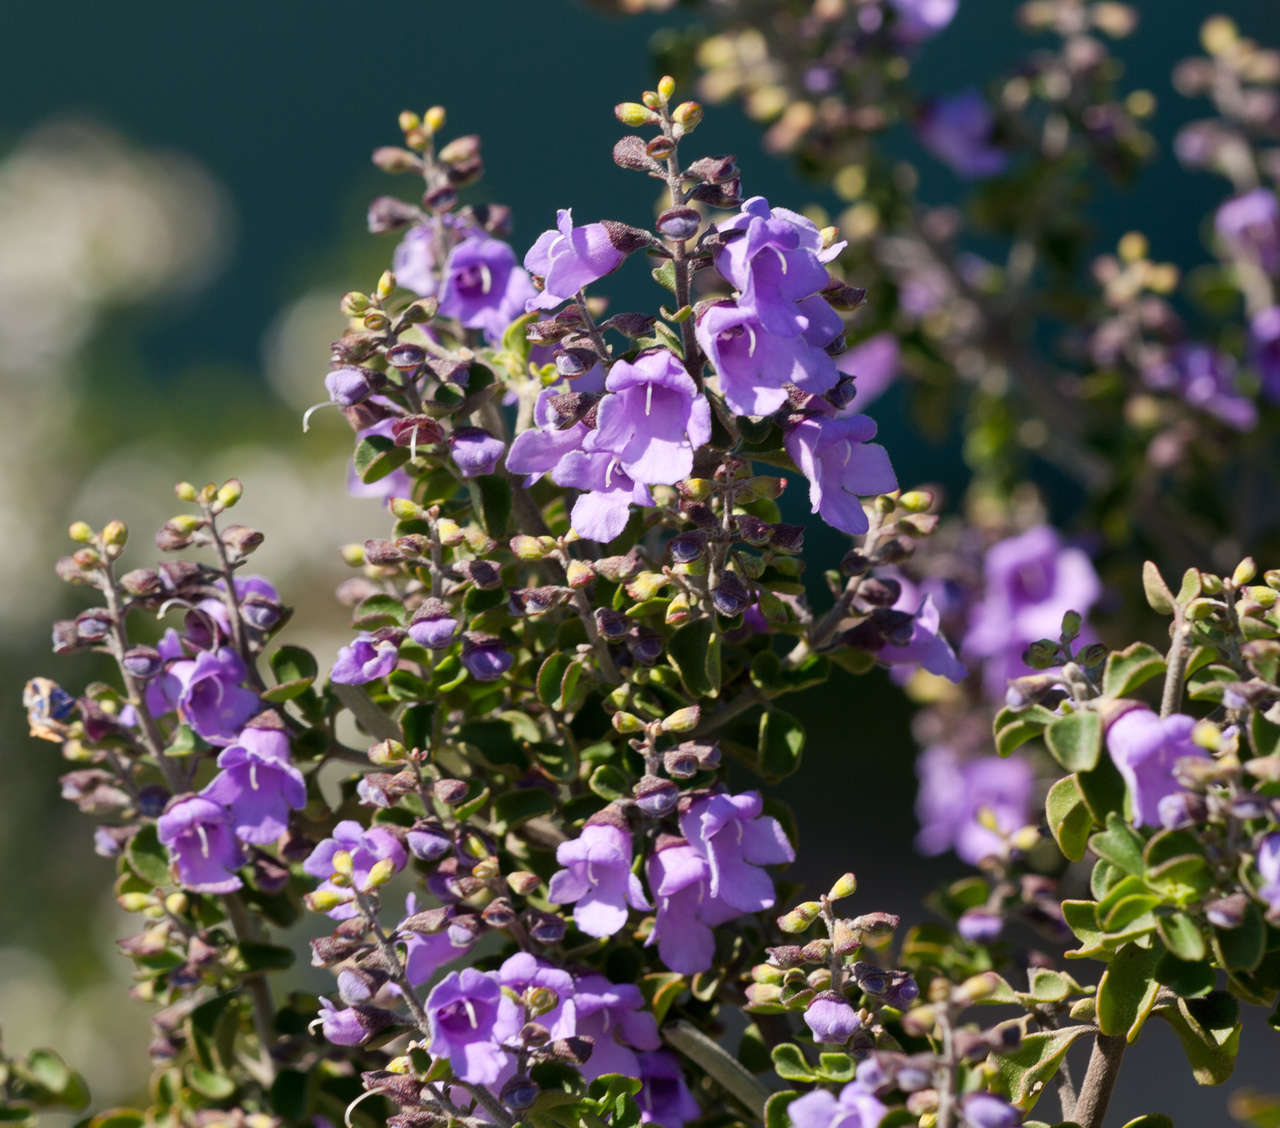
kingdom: Plantae
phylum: Tracheophyta
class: Magnoliopsida
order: Lamiales
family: Lamiaceae
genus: Prostanthera
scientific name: Prostanthera rotundifolia
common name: Round-leaf mintbush
